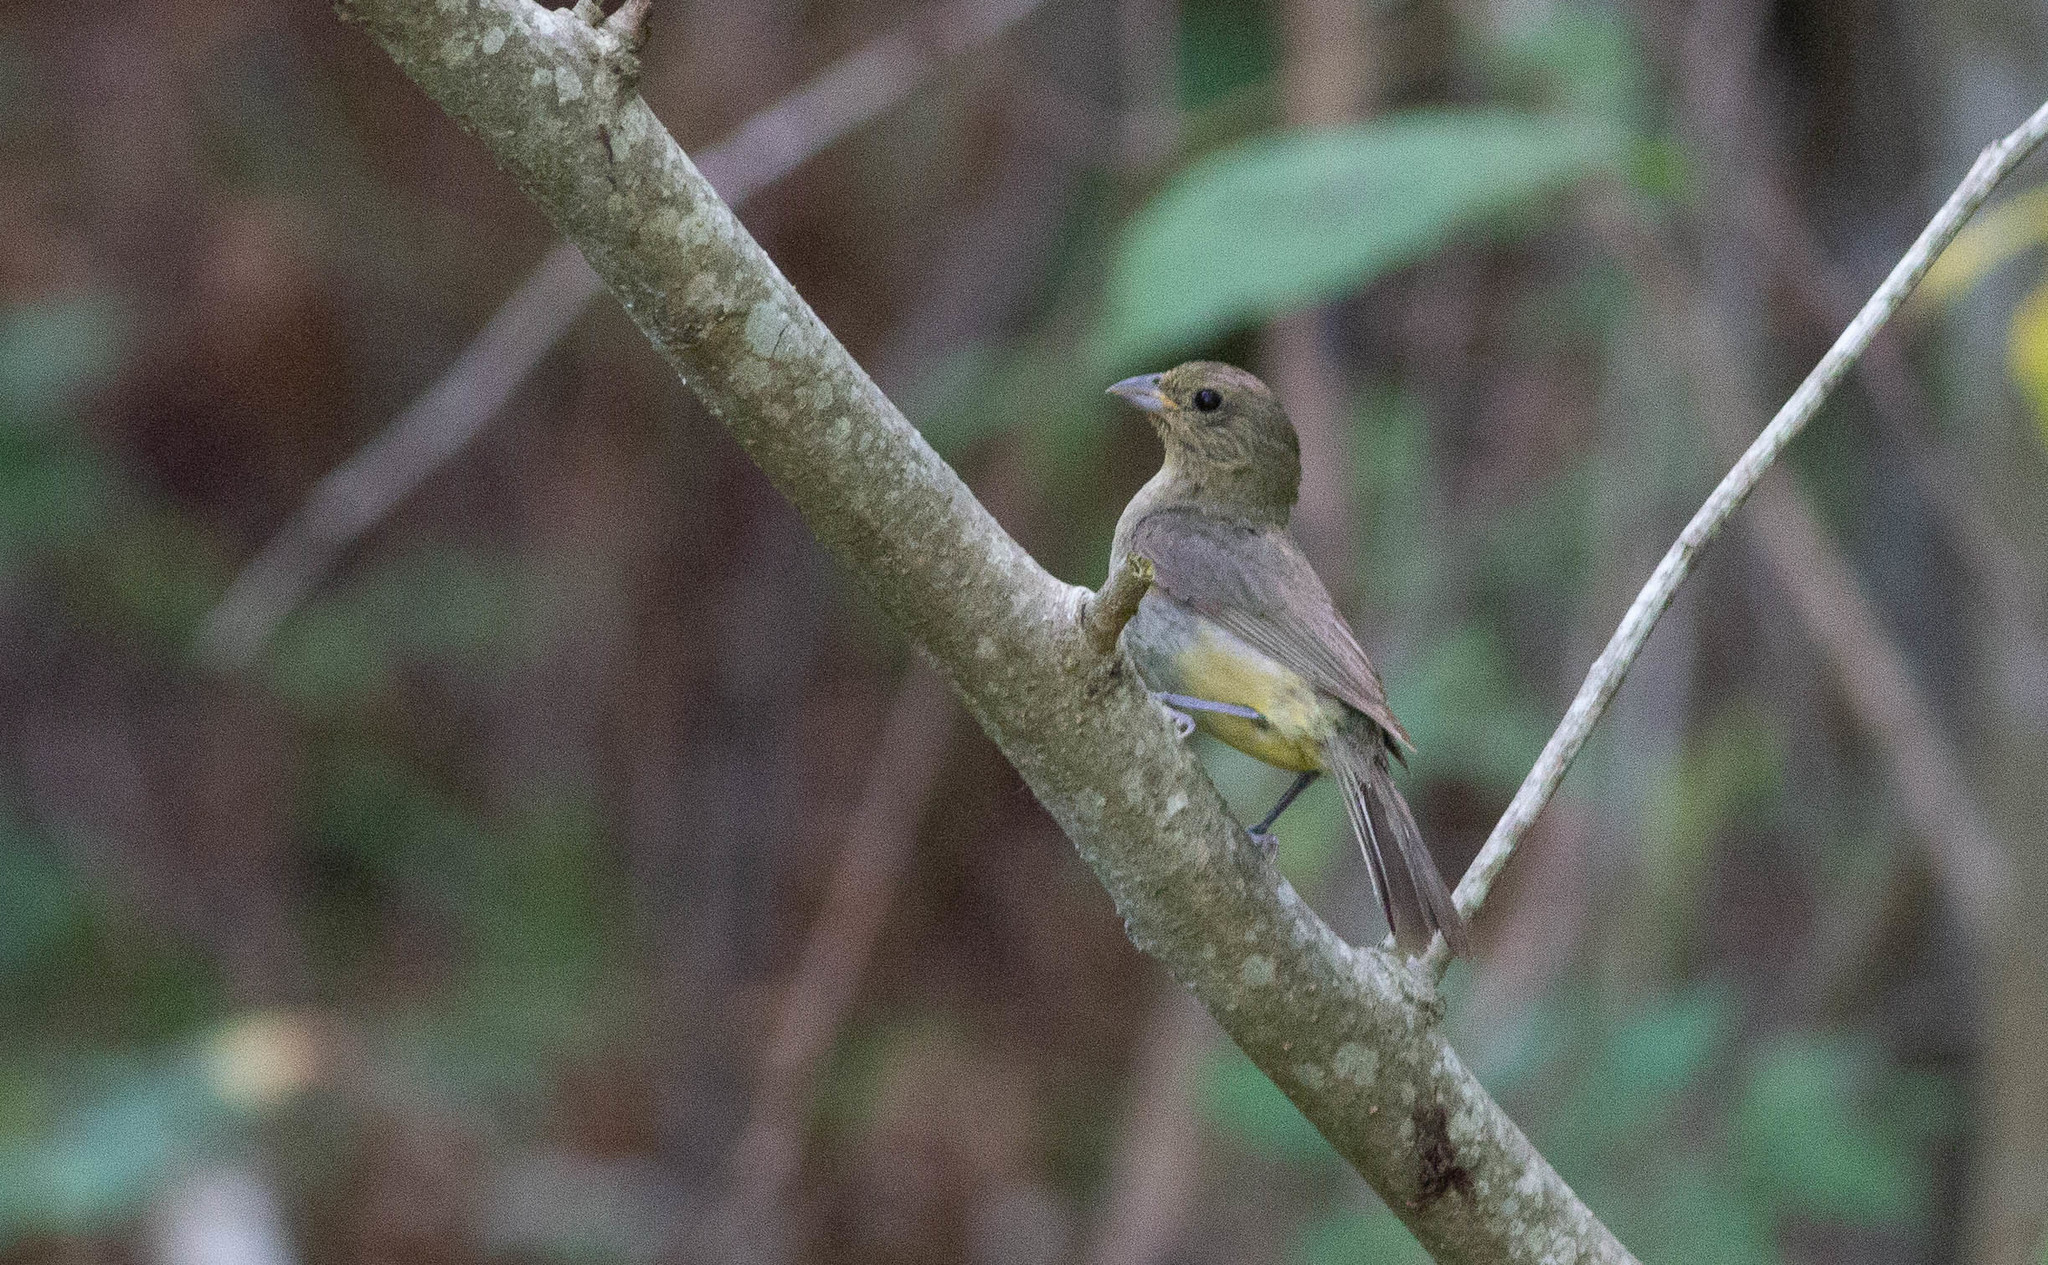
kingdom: Animalia
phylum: Chordata
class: Aves
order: Passeriformes
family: Cardinalidae
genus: Passerina
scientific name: Passerina ciris
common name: Painted bunting
